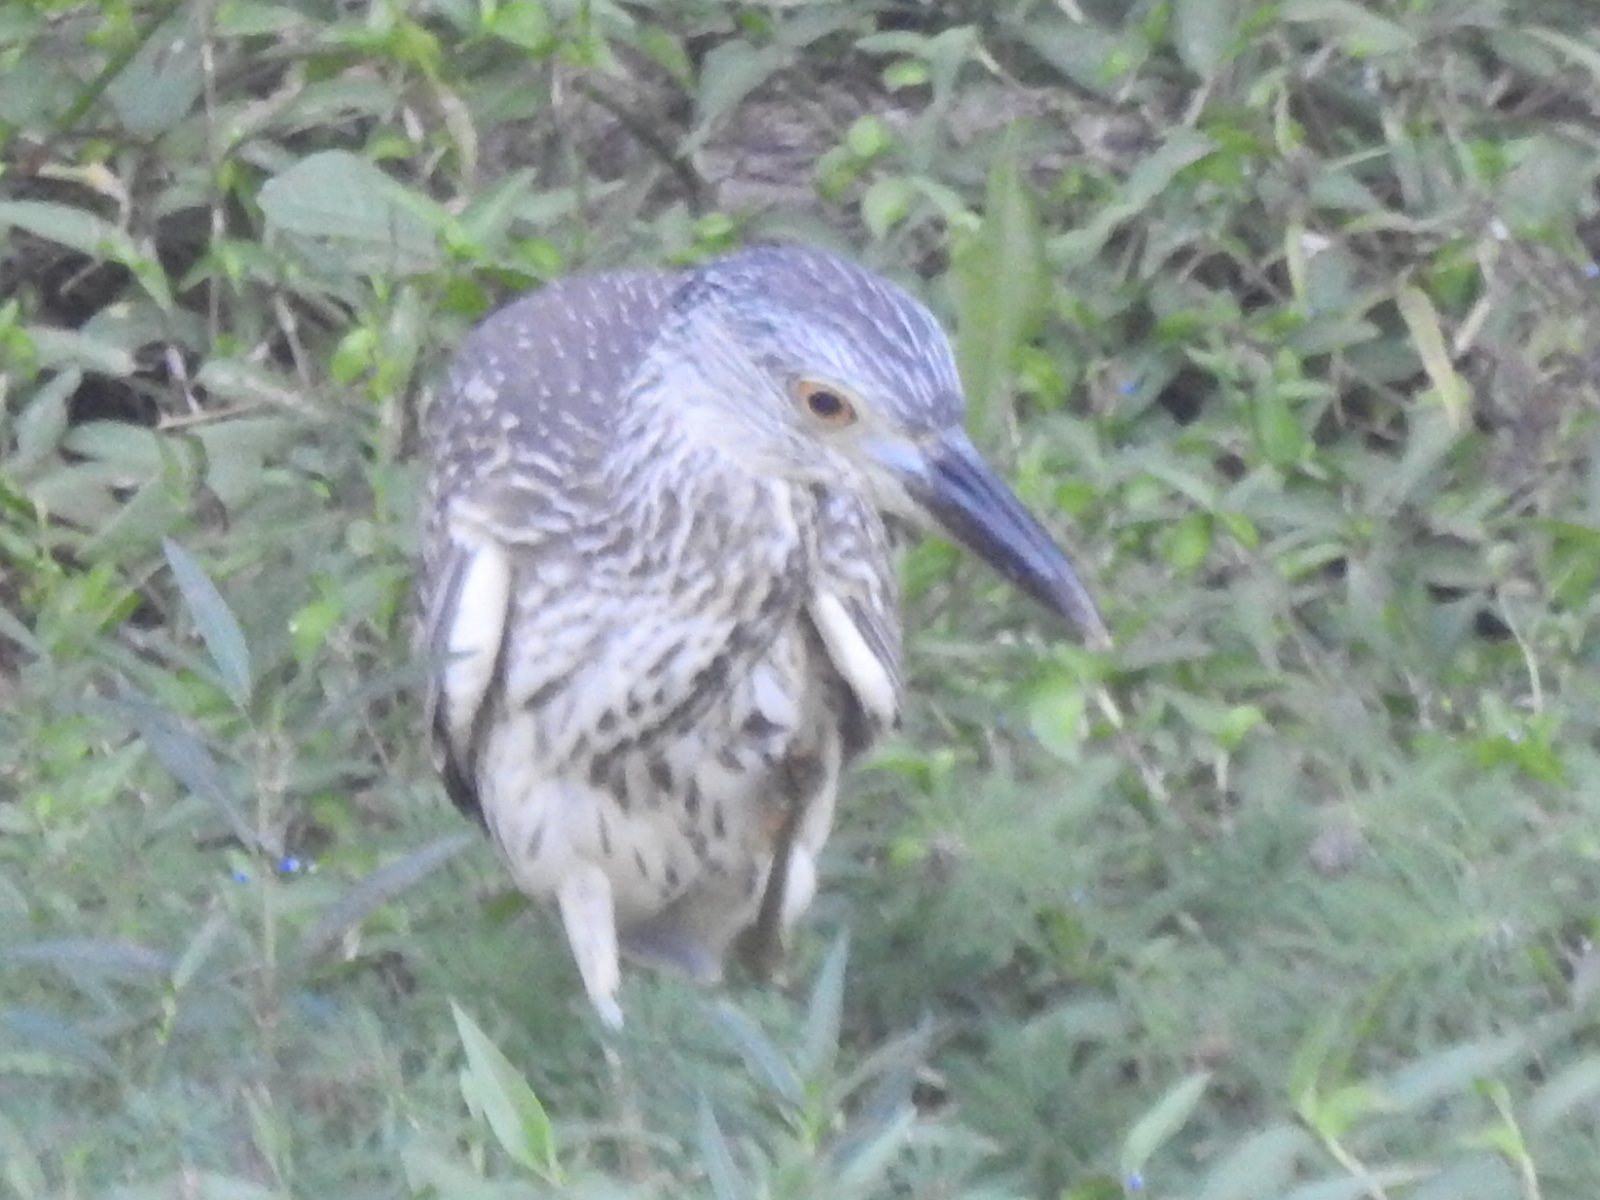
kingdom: Animalia
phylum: Chordata
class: Aves
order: Pelecaniformes
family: Ardeidae
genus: Nyctanassa
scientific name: Nyctanassa violacea
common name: Yellow-crowned night heron
